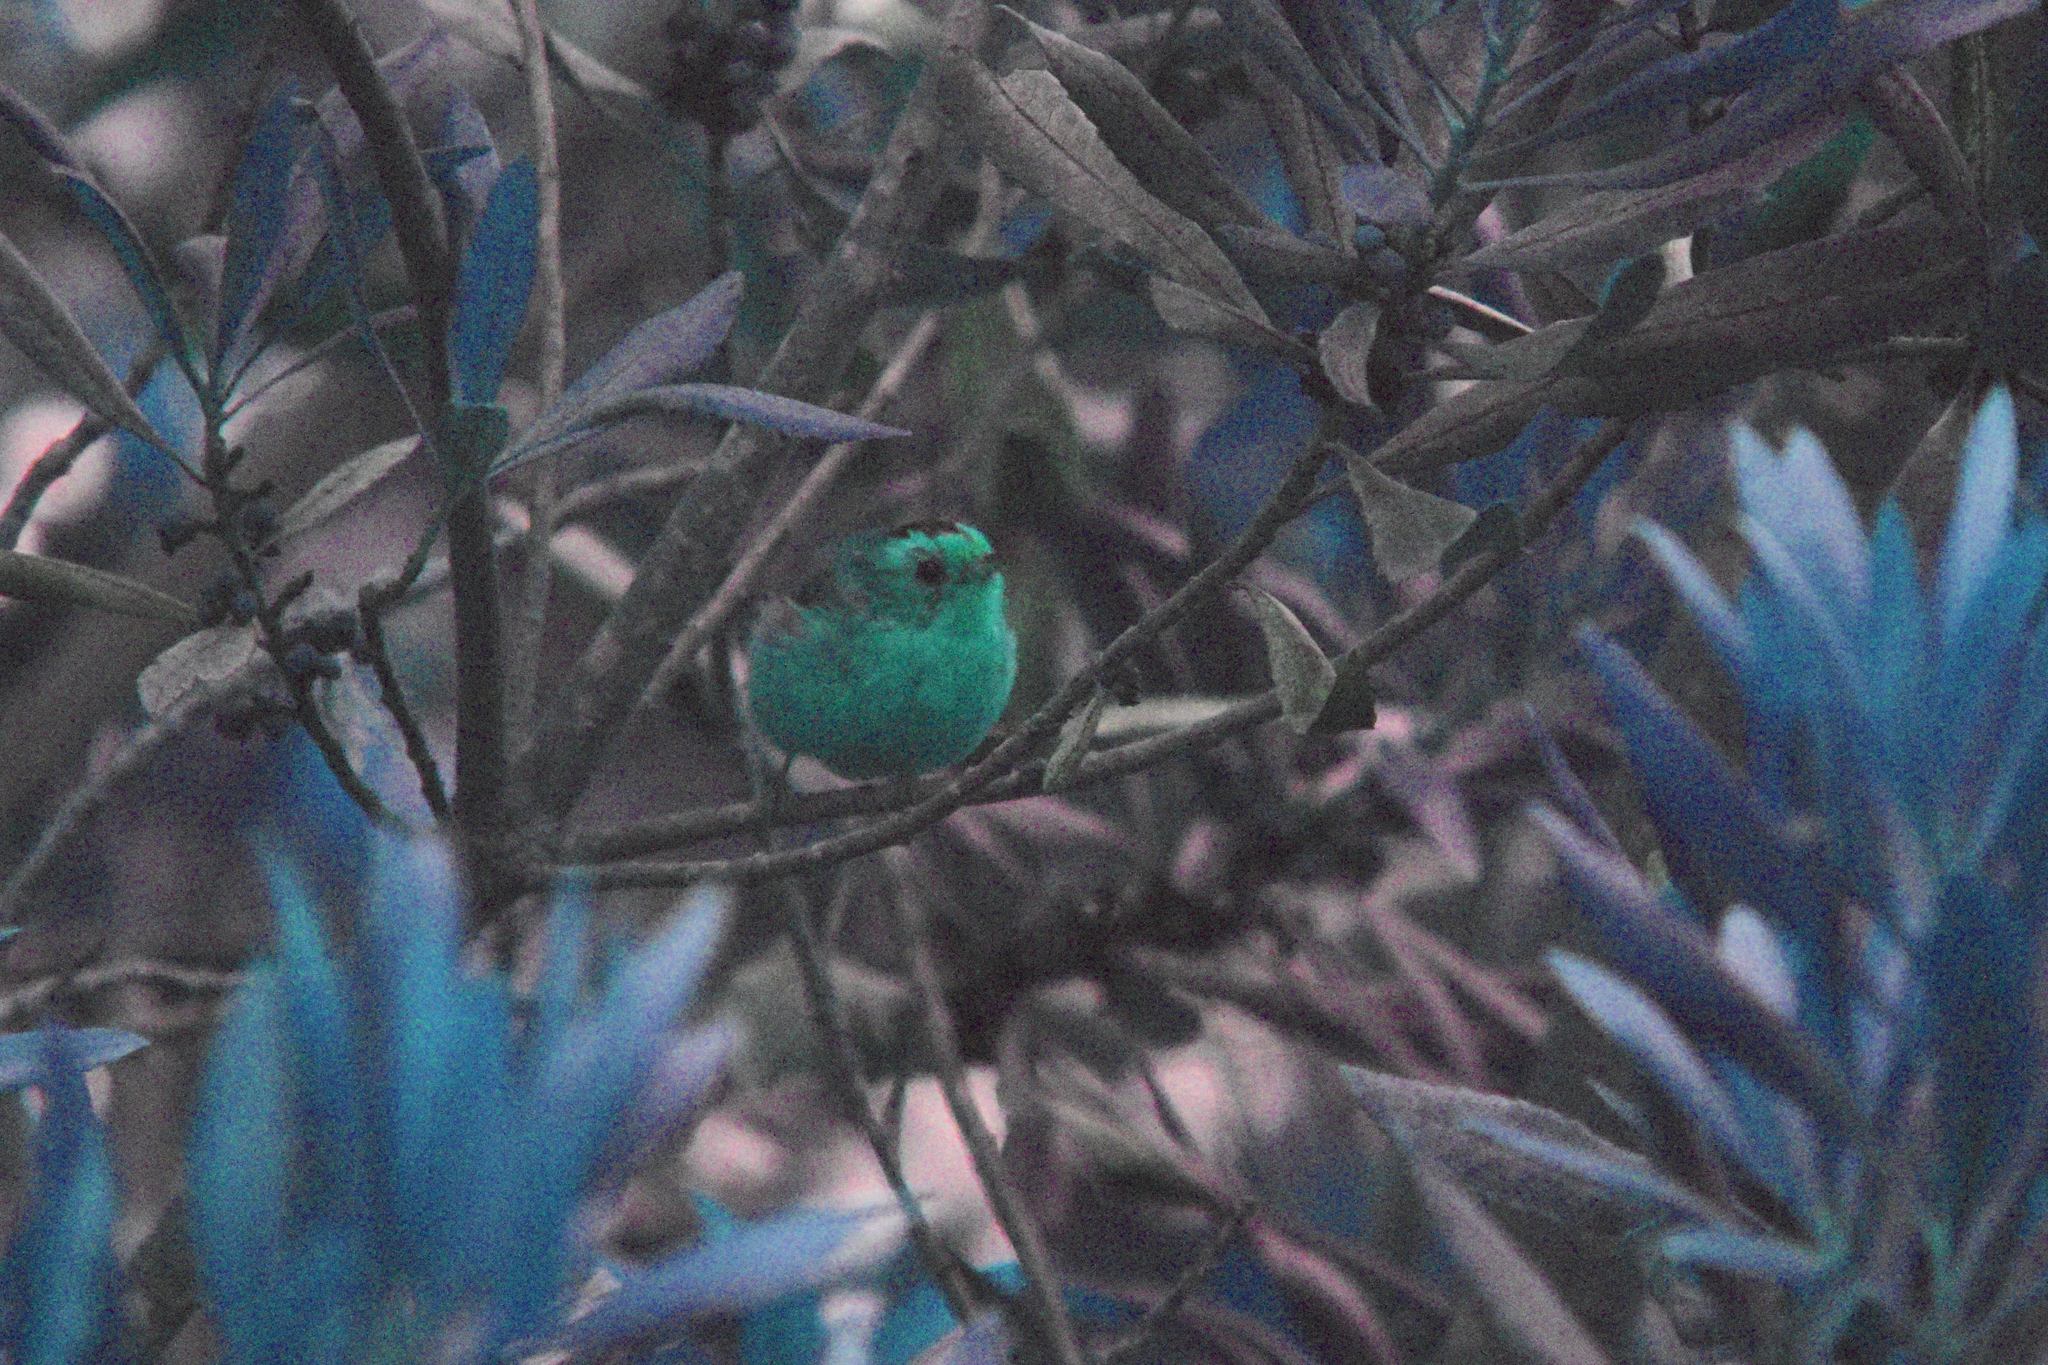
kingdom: Animalia
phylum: Chordata
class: Aves
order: Passeriformes
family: Parulidae
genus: Cardellina
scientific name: Cardellina pusilla
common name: Wilson's warbler
